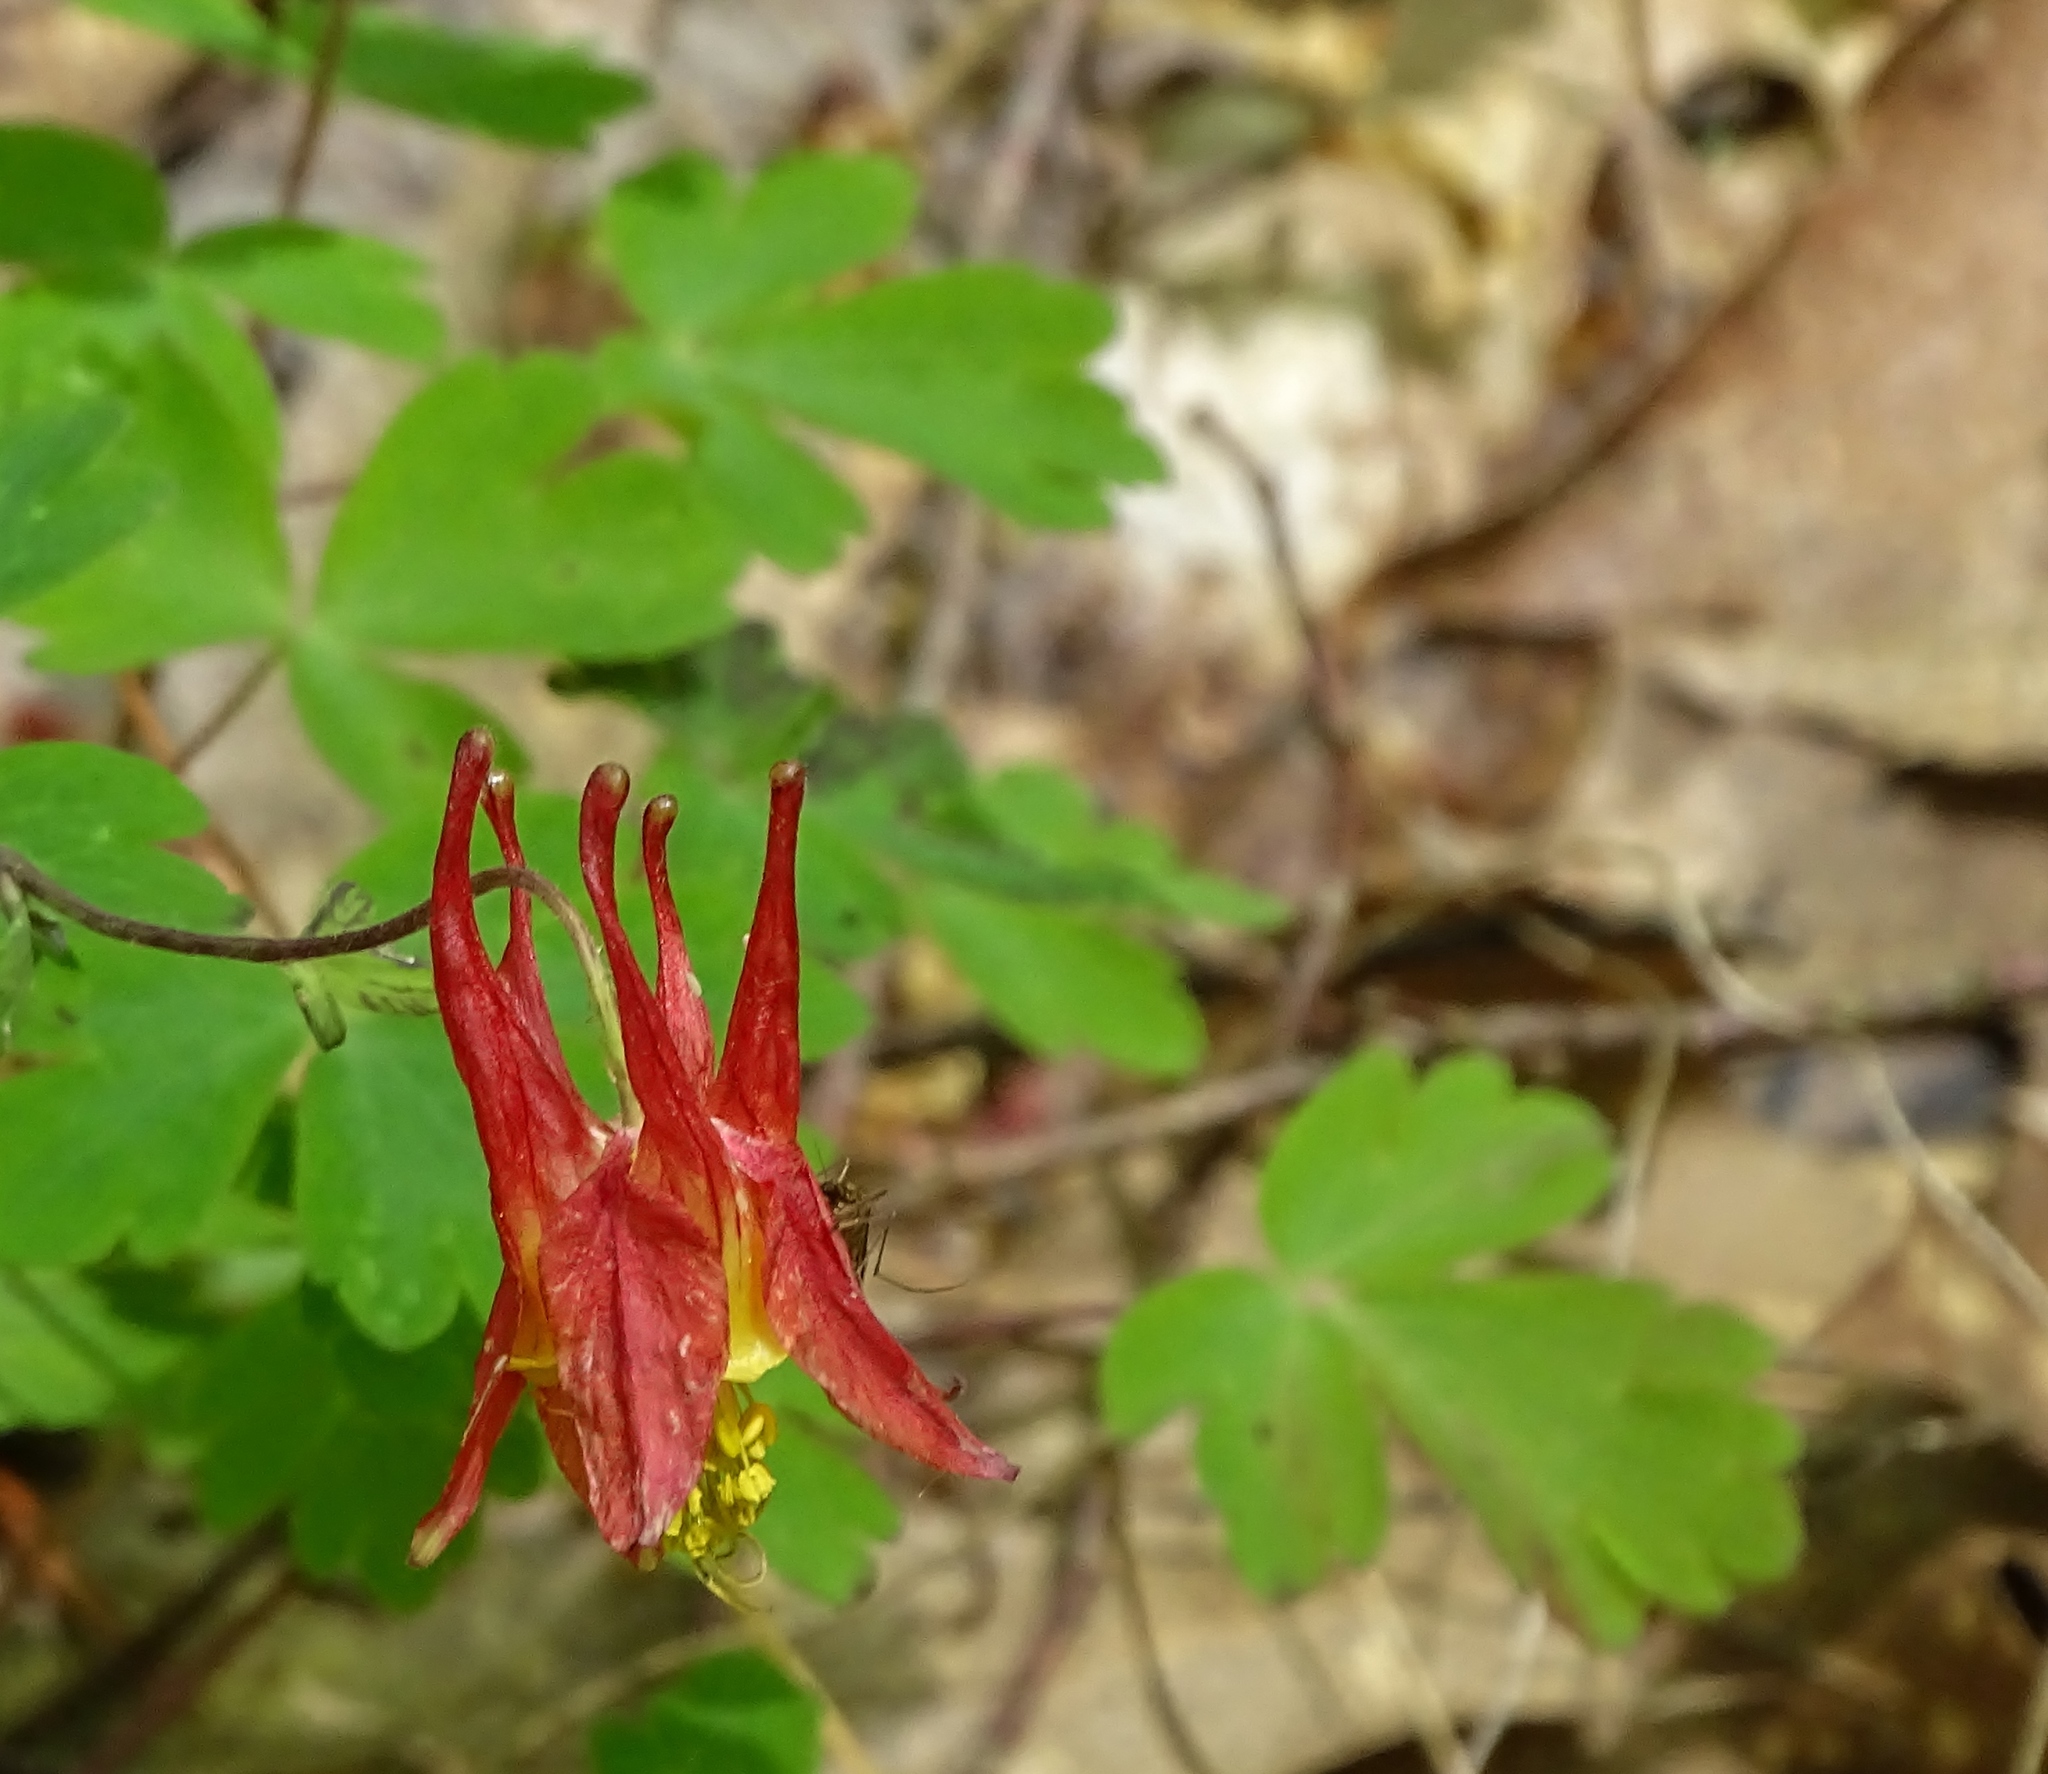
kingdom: Plantae
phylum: Tracheophyta
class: Magnoliopsida
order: Ranunculales
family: Ranunculaceae
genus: Aquilegia
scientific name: Aquilegia canadensis
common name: American columbine
